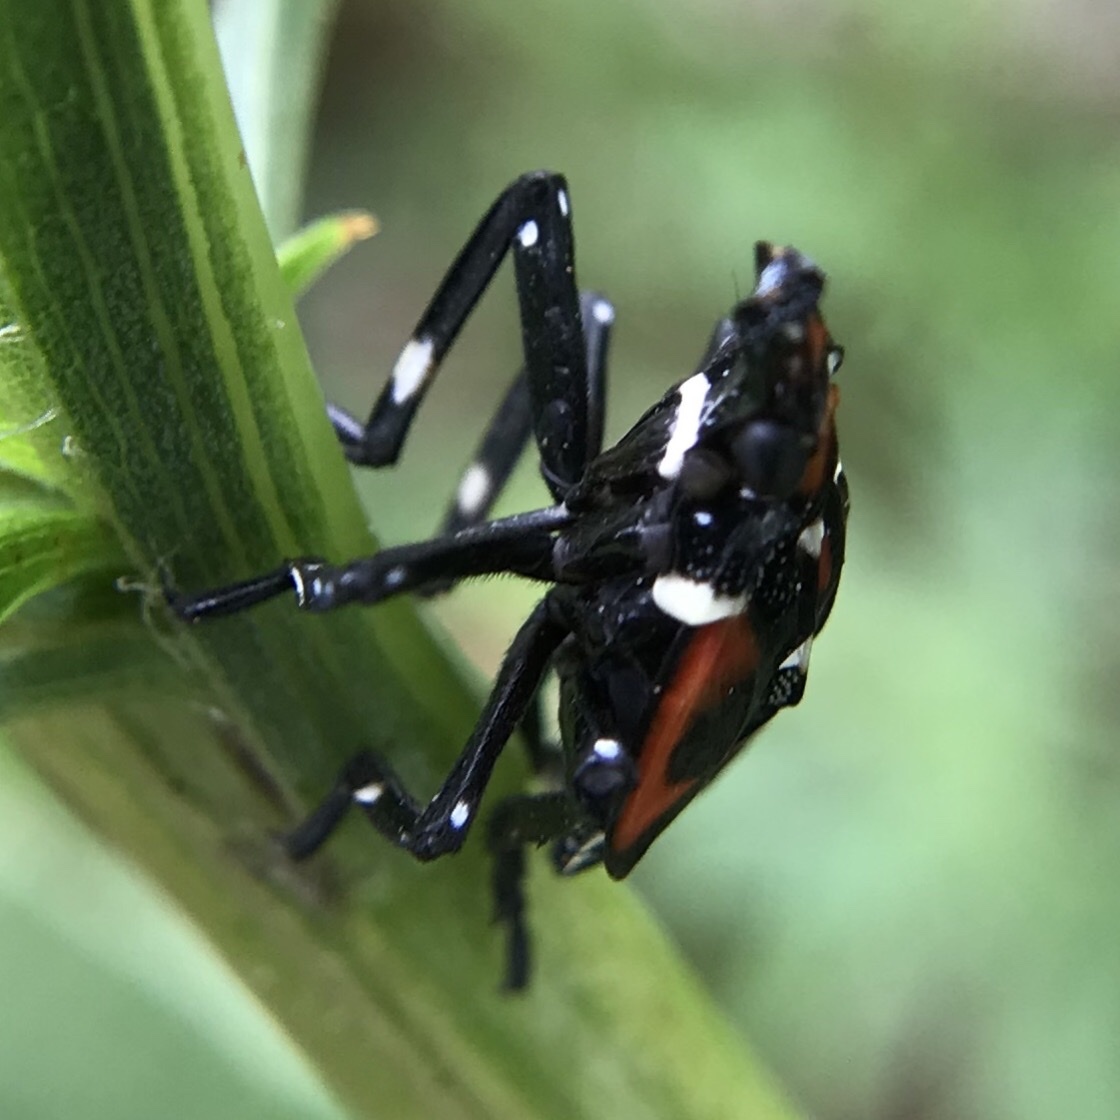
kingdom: Animalia
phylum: Arthropoda
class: Insecta
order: Hemiptera
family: Fulgoridae
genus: Lycorma
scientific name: Lycorma delicatula
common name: Spotted lanternfly
